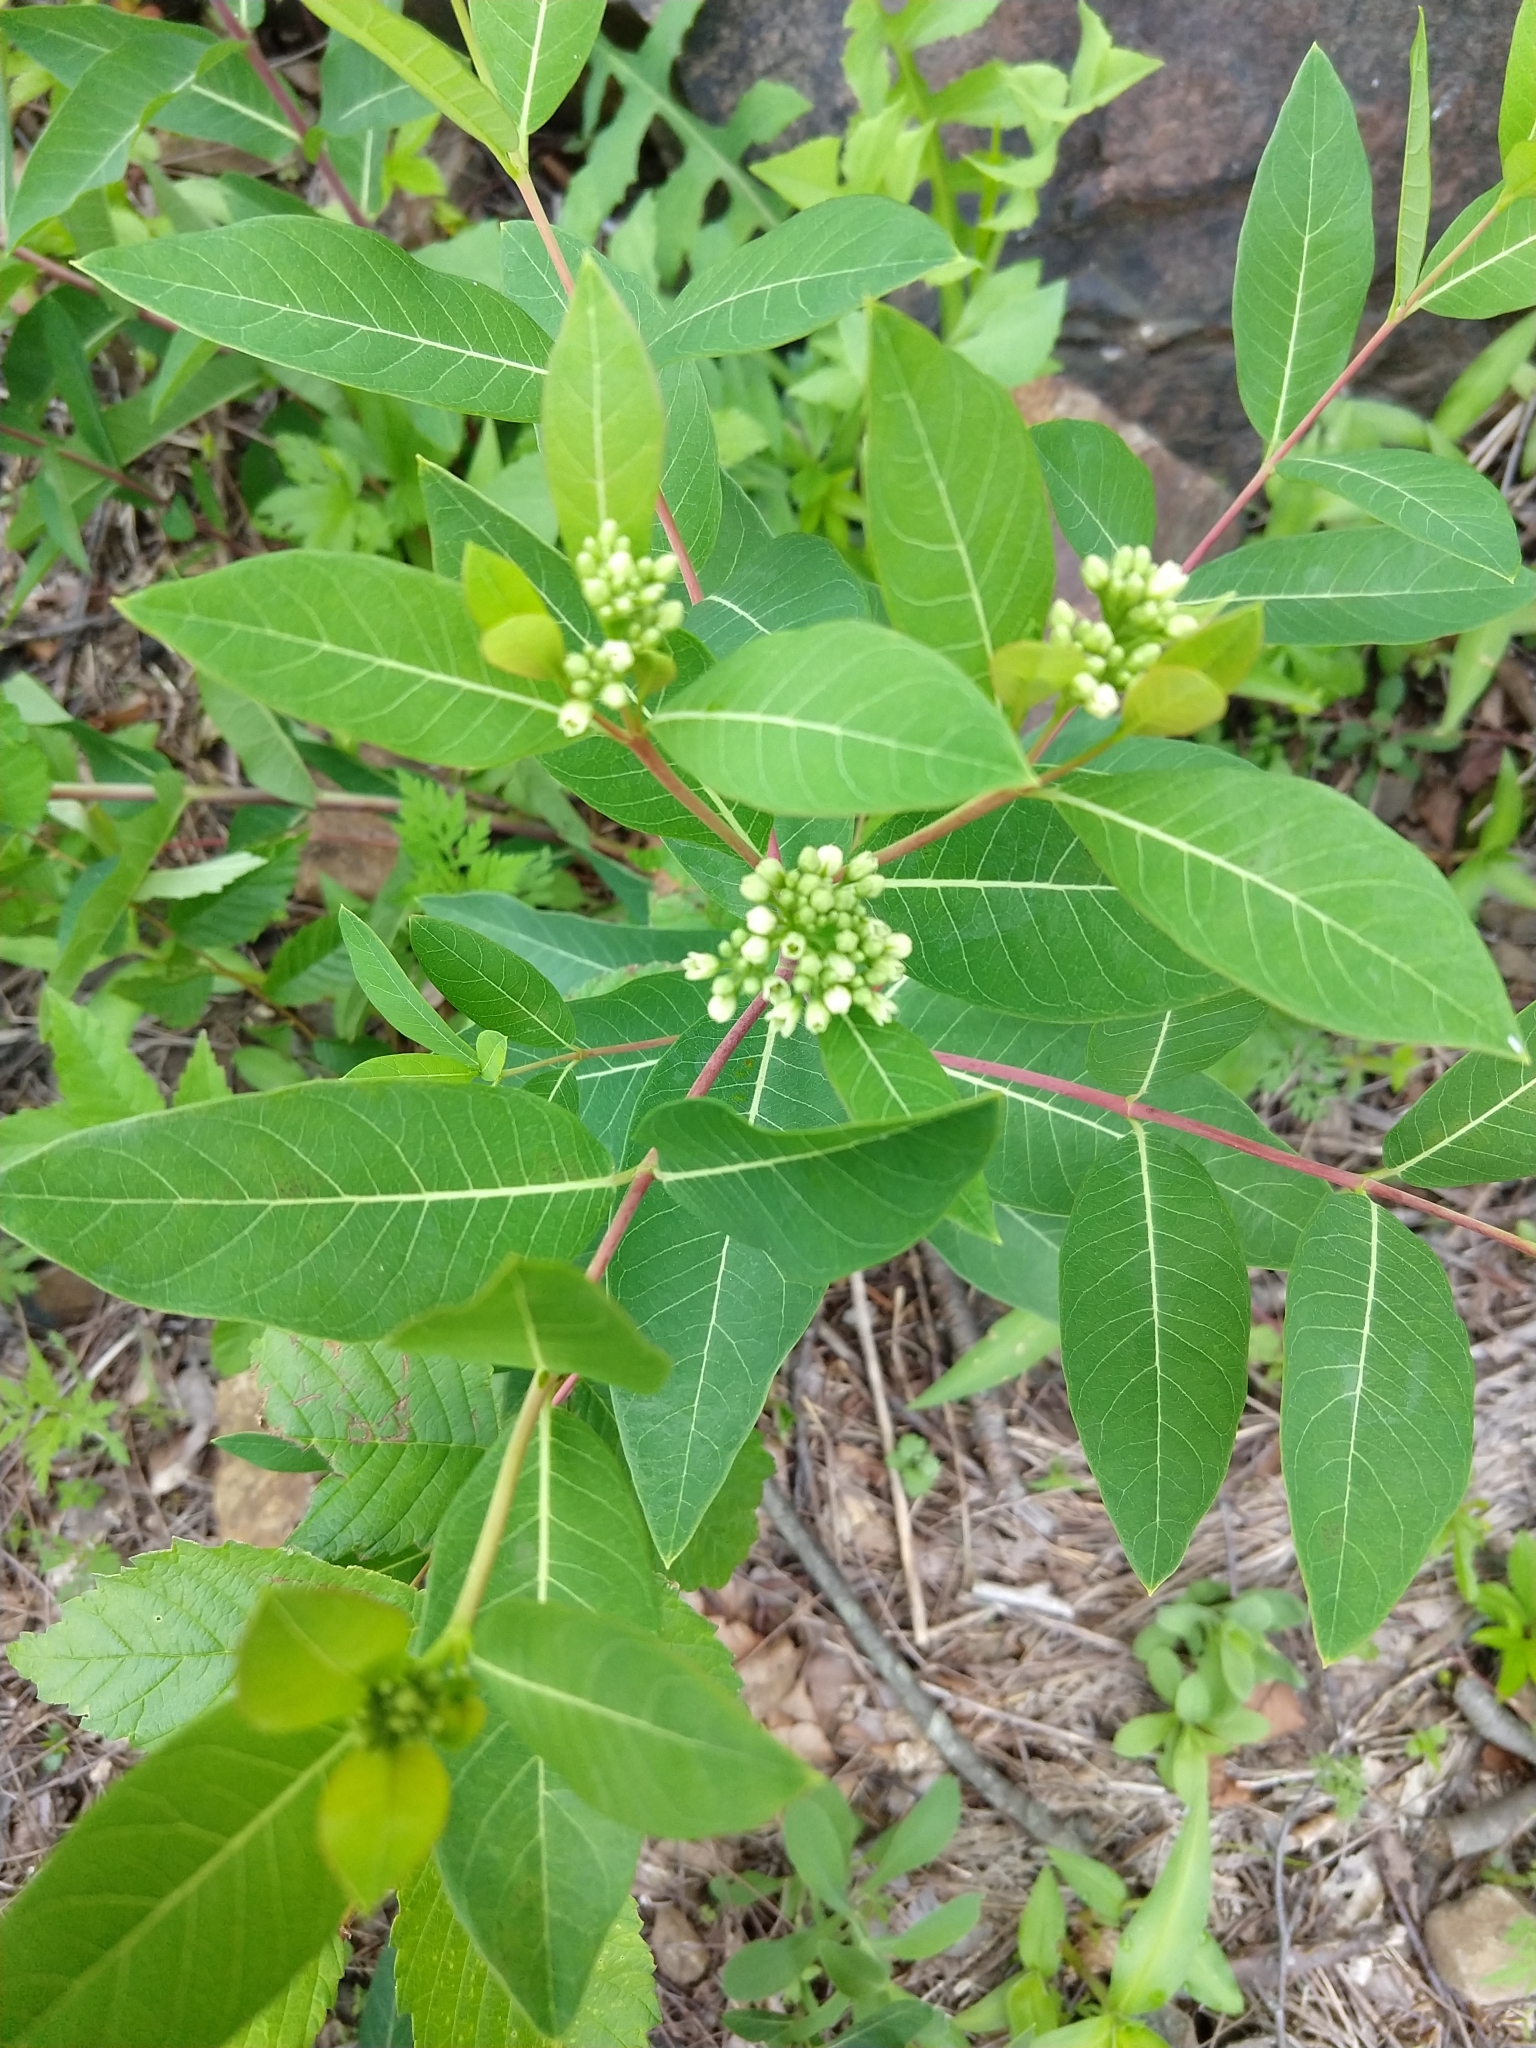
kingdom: Plantae
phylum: Tracheophyta
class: Magnoliopsida
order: Gentianales
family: Apocynaceae
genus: Apocynum
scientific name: Apocynum cannabinum
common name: Hemp dogbane
